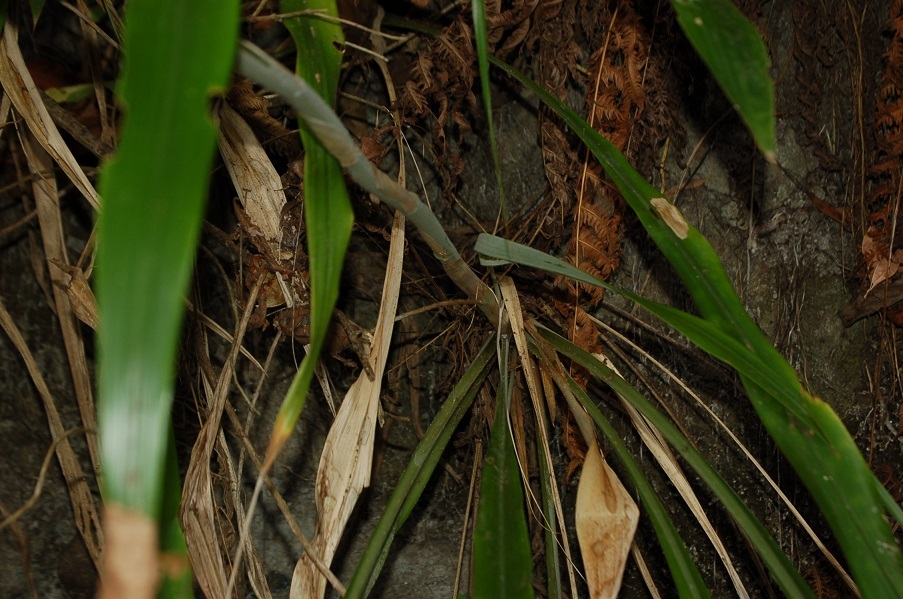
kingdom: Plantae
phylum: Tracheophyta
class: Liliopsida
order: Poales
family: Bromeliaceae
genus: Pitcairnia
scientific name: Pitcairnia recurvata
